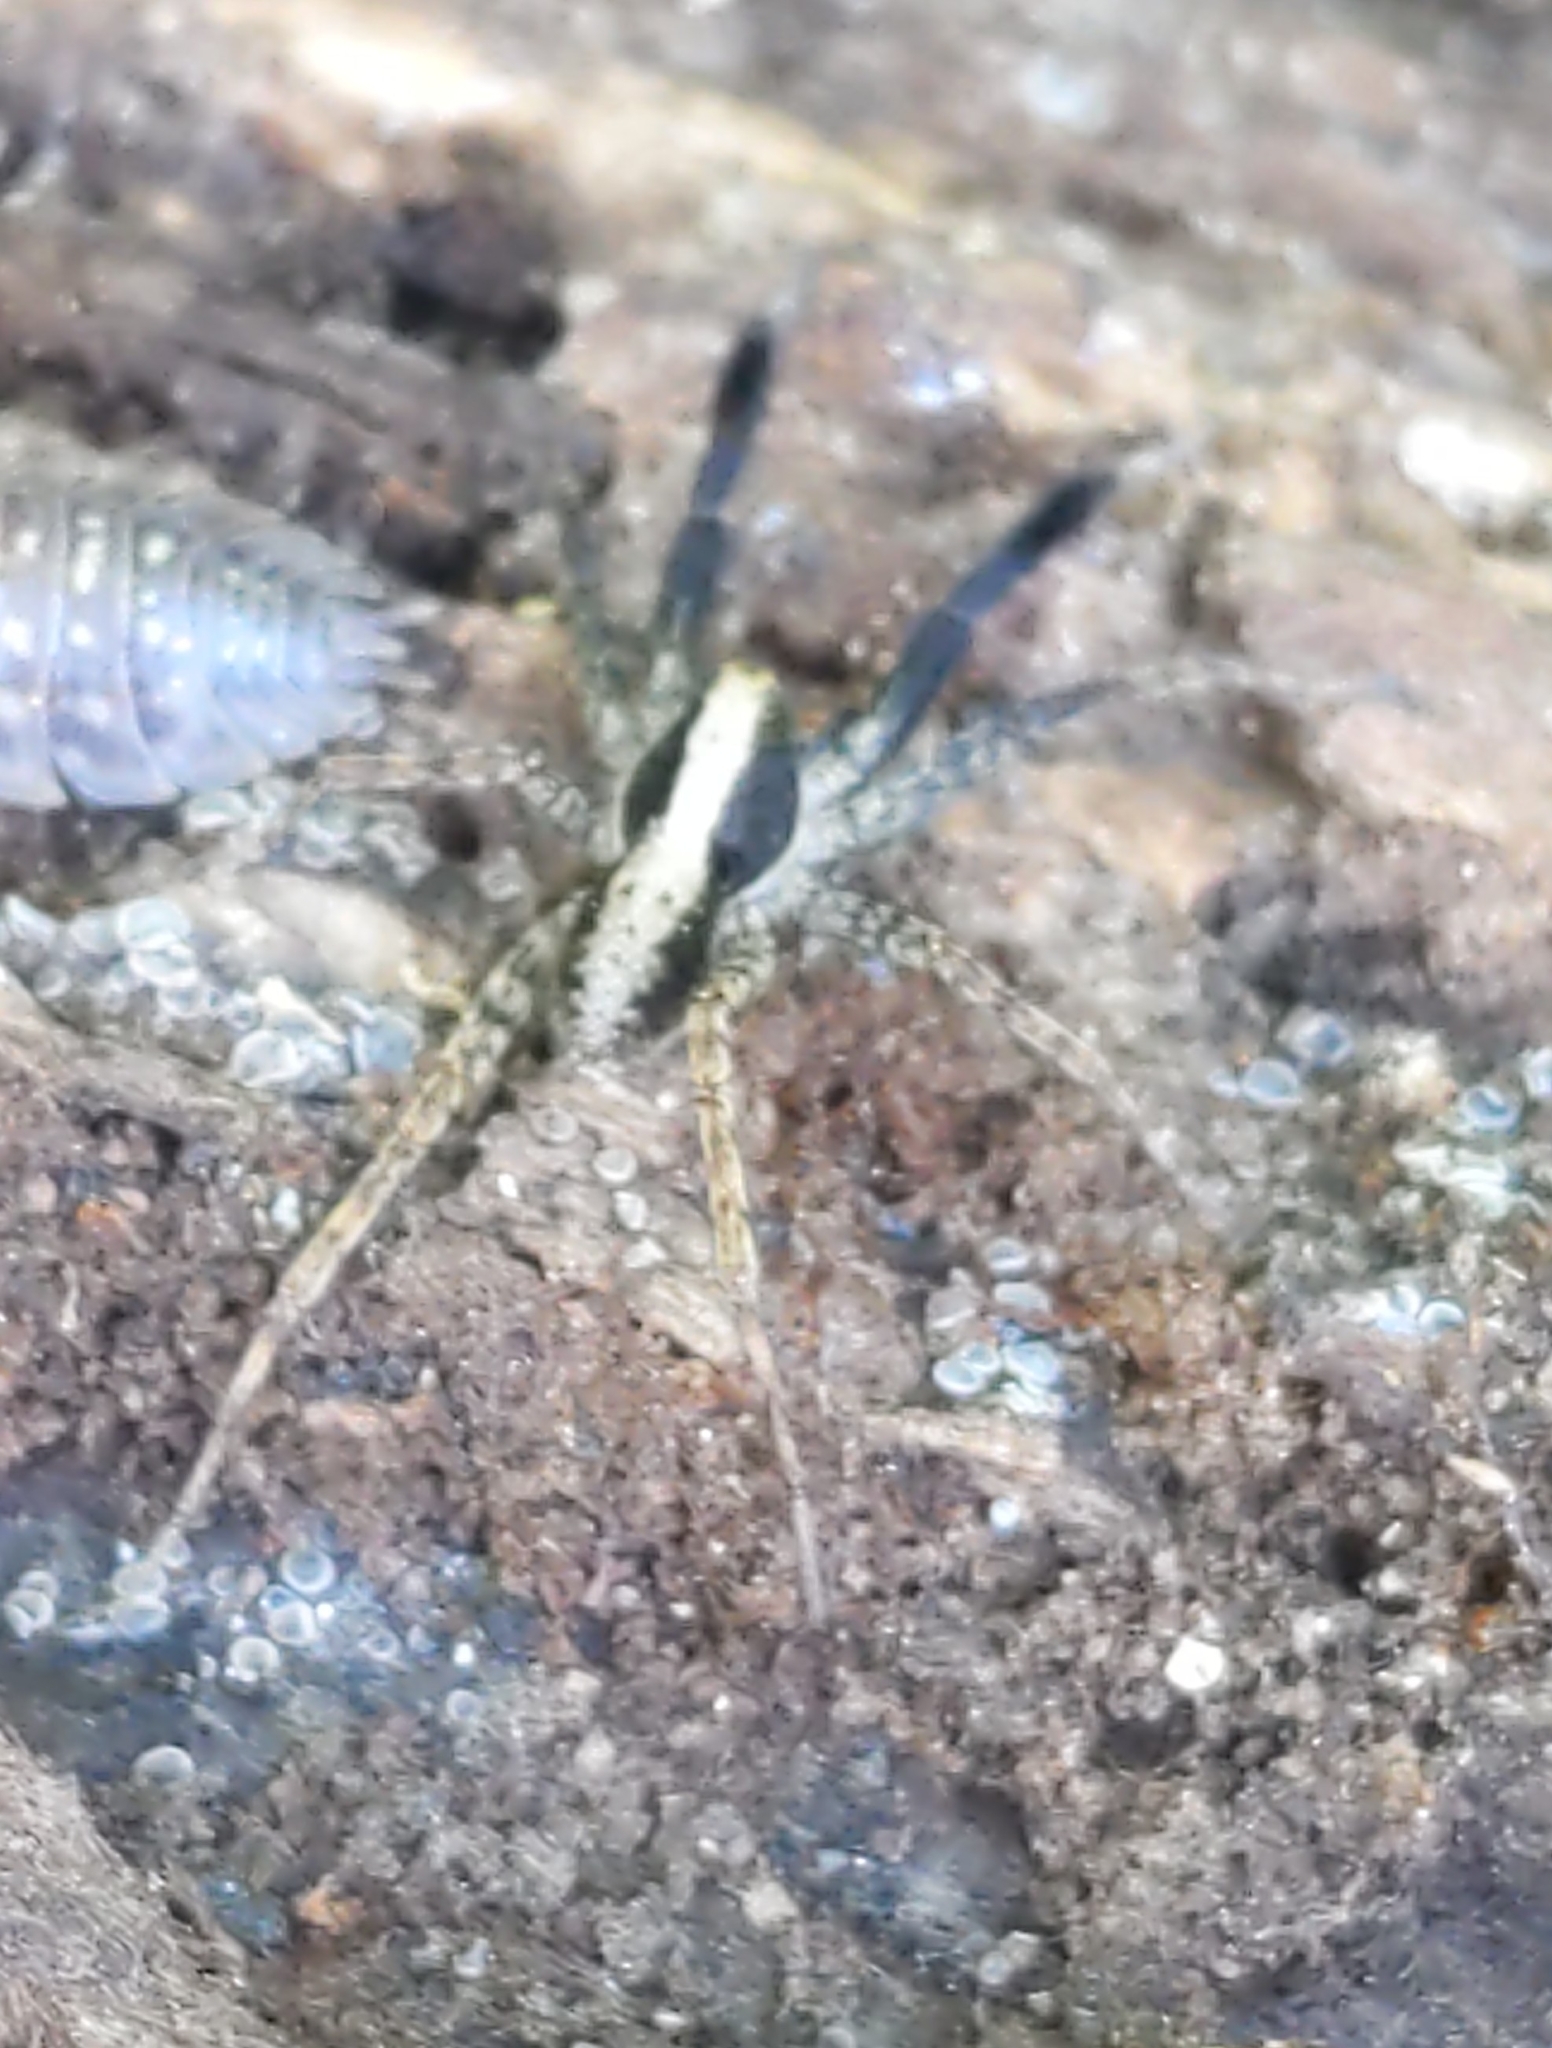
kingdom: Animalia
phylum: Arthropoda
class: Arachnida
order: Araneae
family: Lycosidae
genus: Schizocosa
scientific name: Schizocosa
